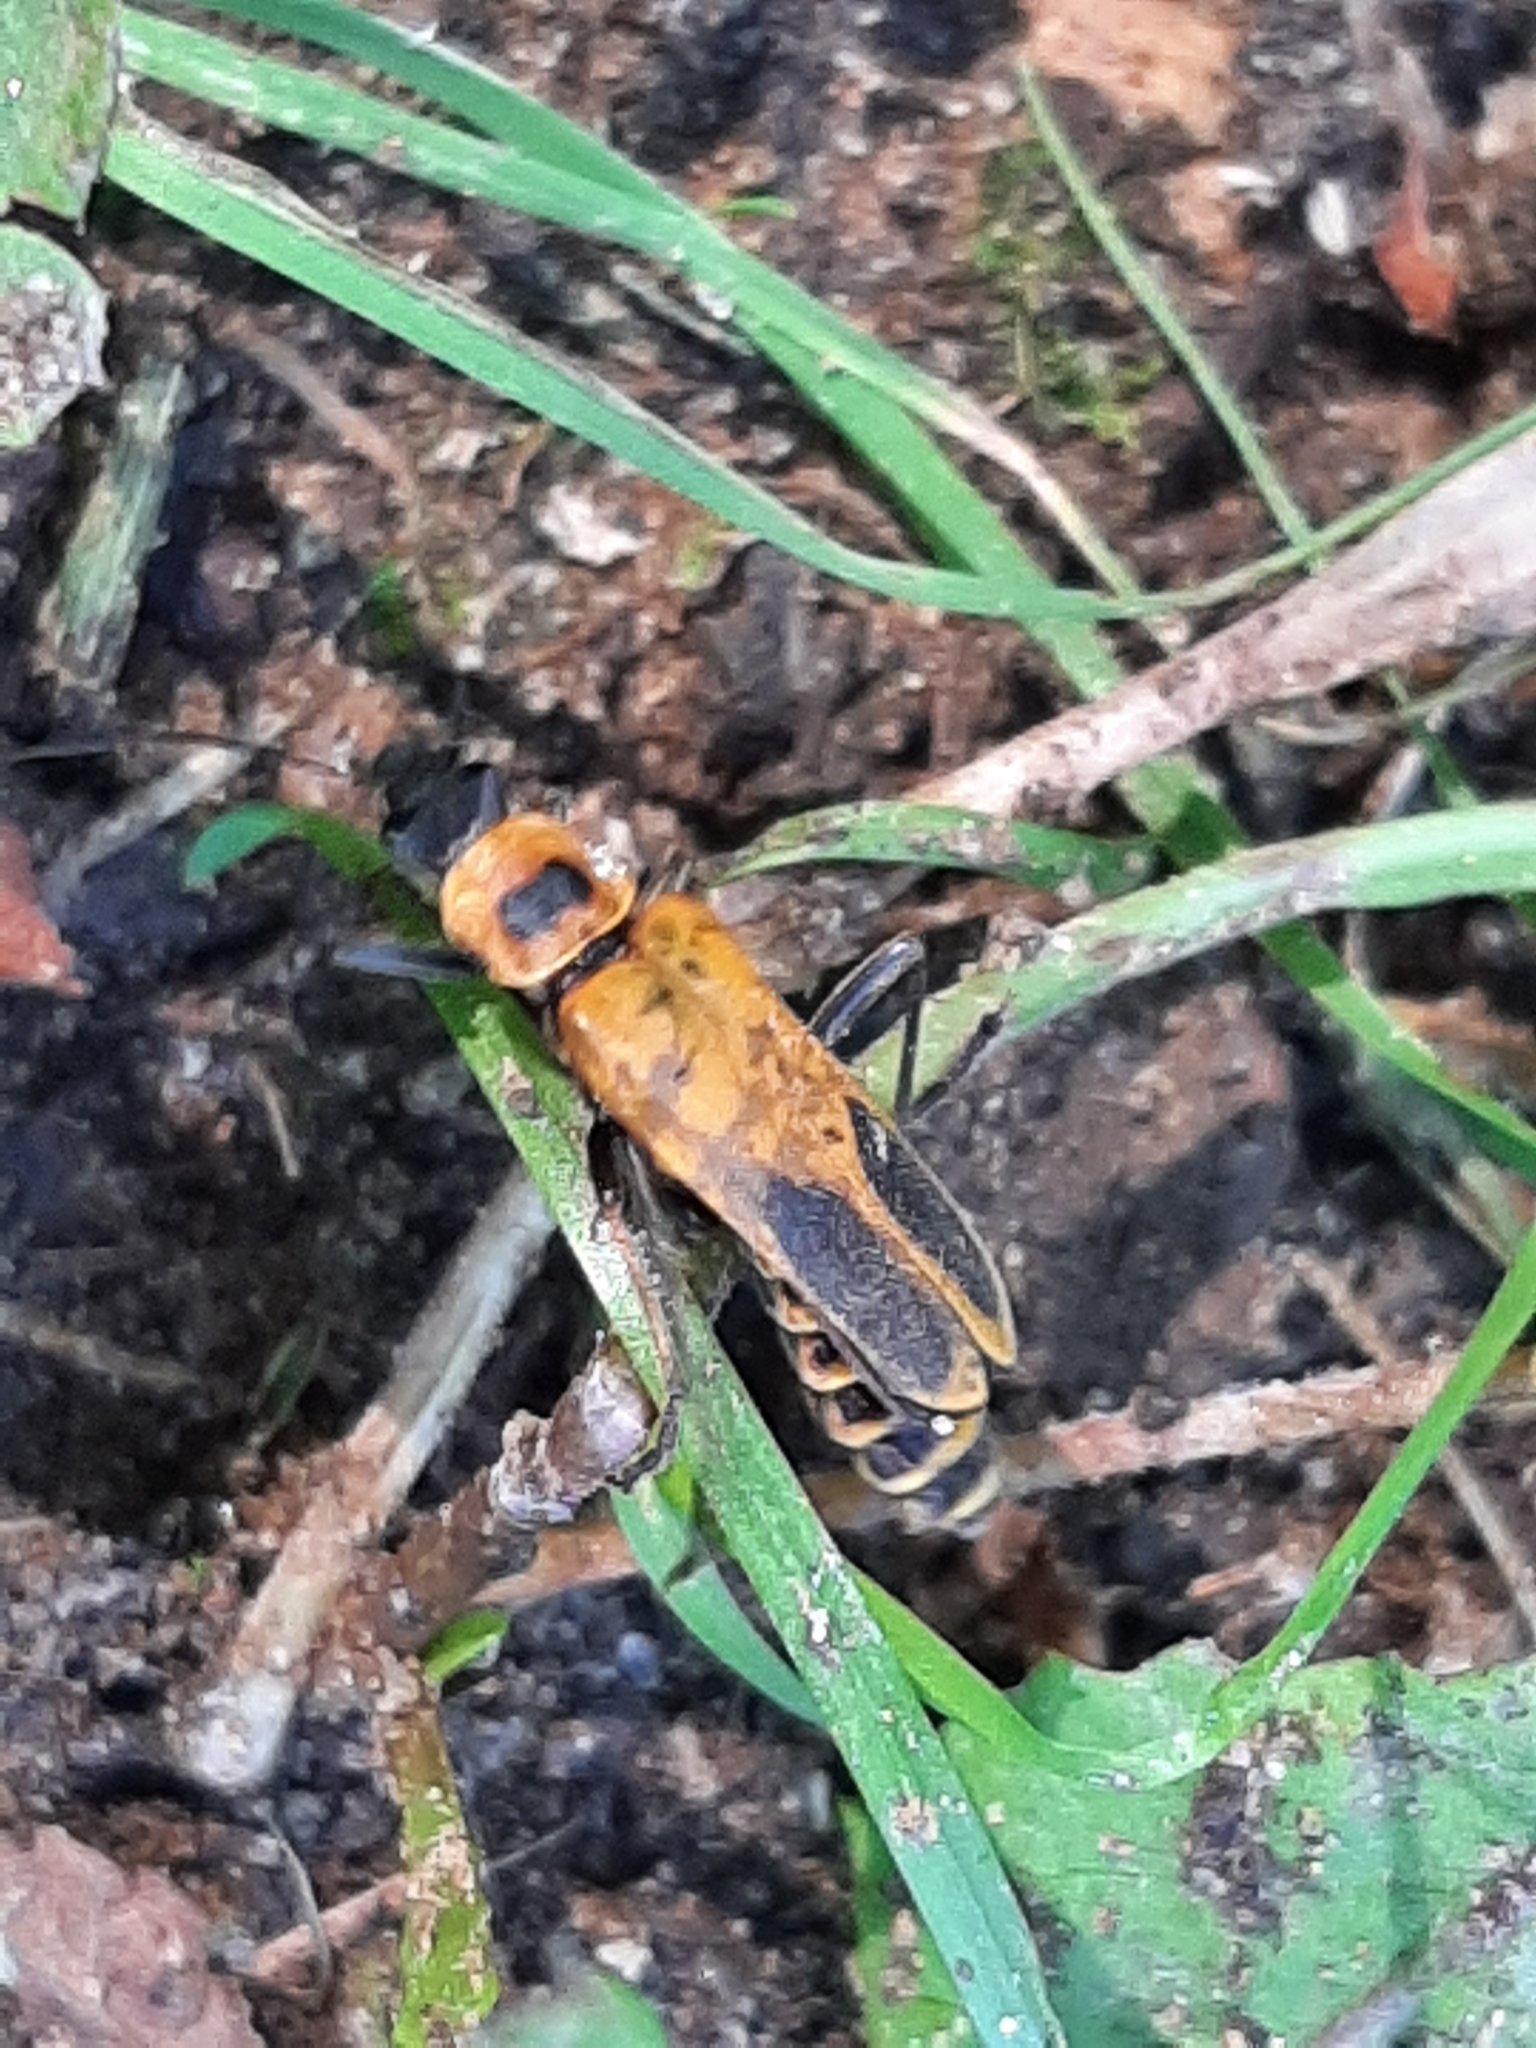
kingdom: Animalia
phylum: Arthropoda
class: Insecta
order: Coleoptera
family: Cantharidae
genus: Chauliognathus
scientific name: Chauliognathus pensylvanicus
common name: Goldenrod soldier beetle
